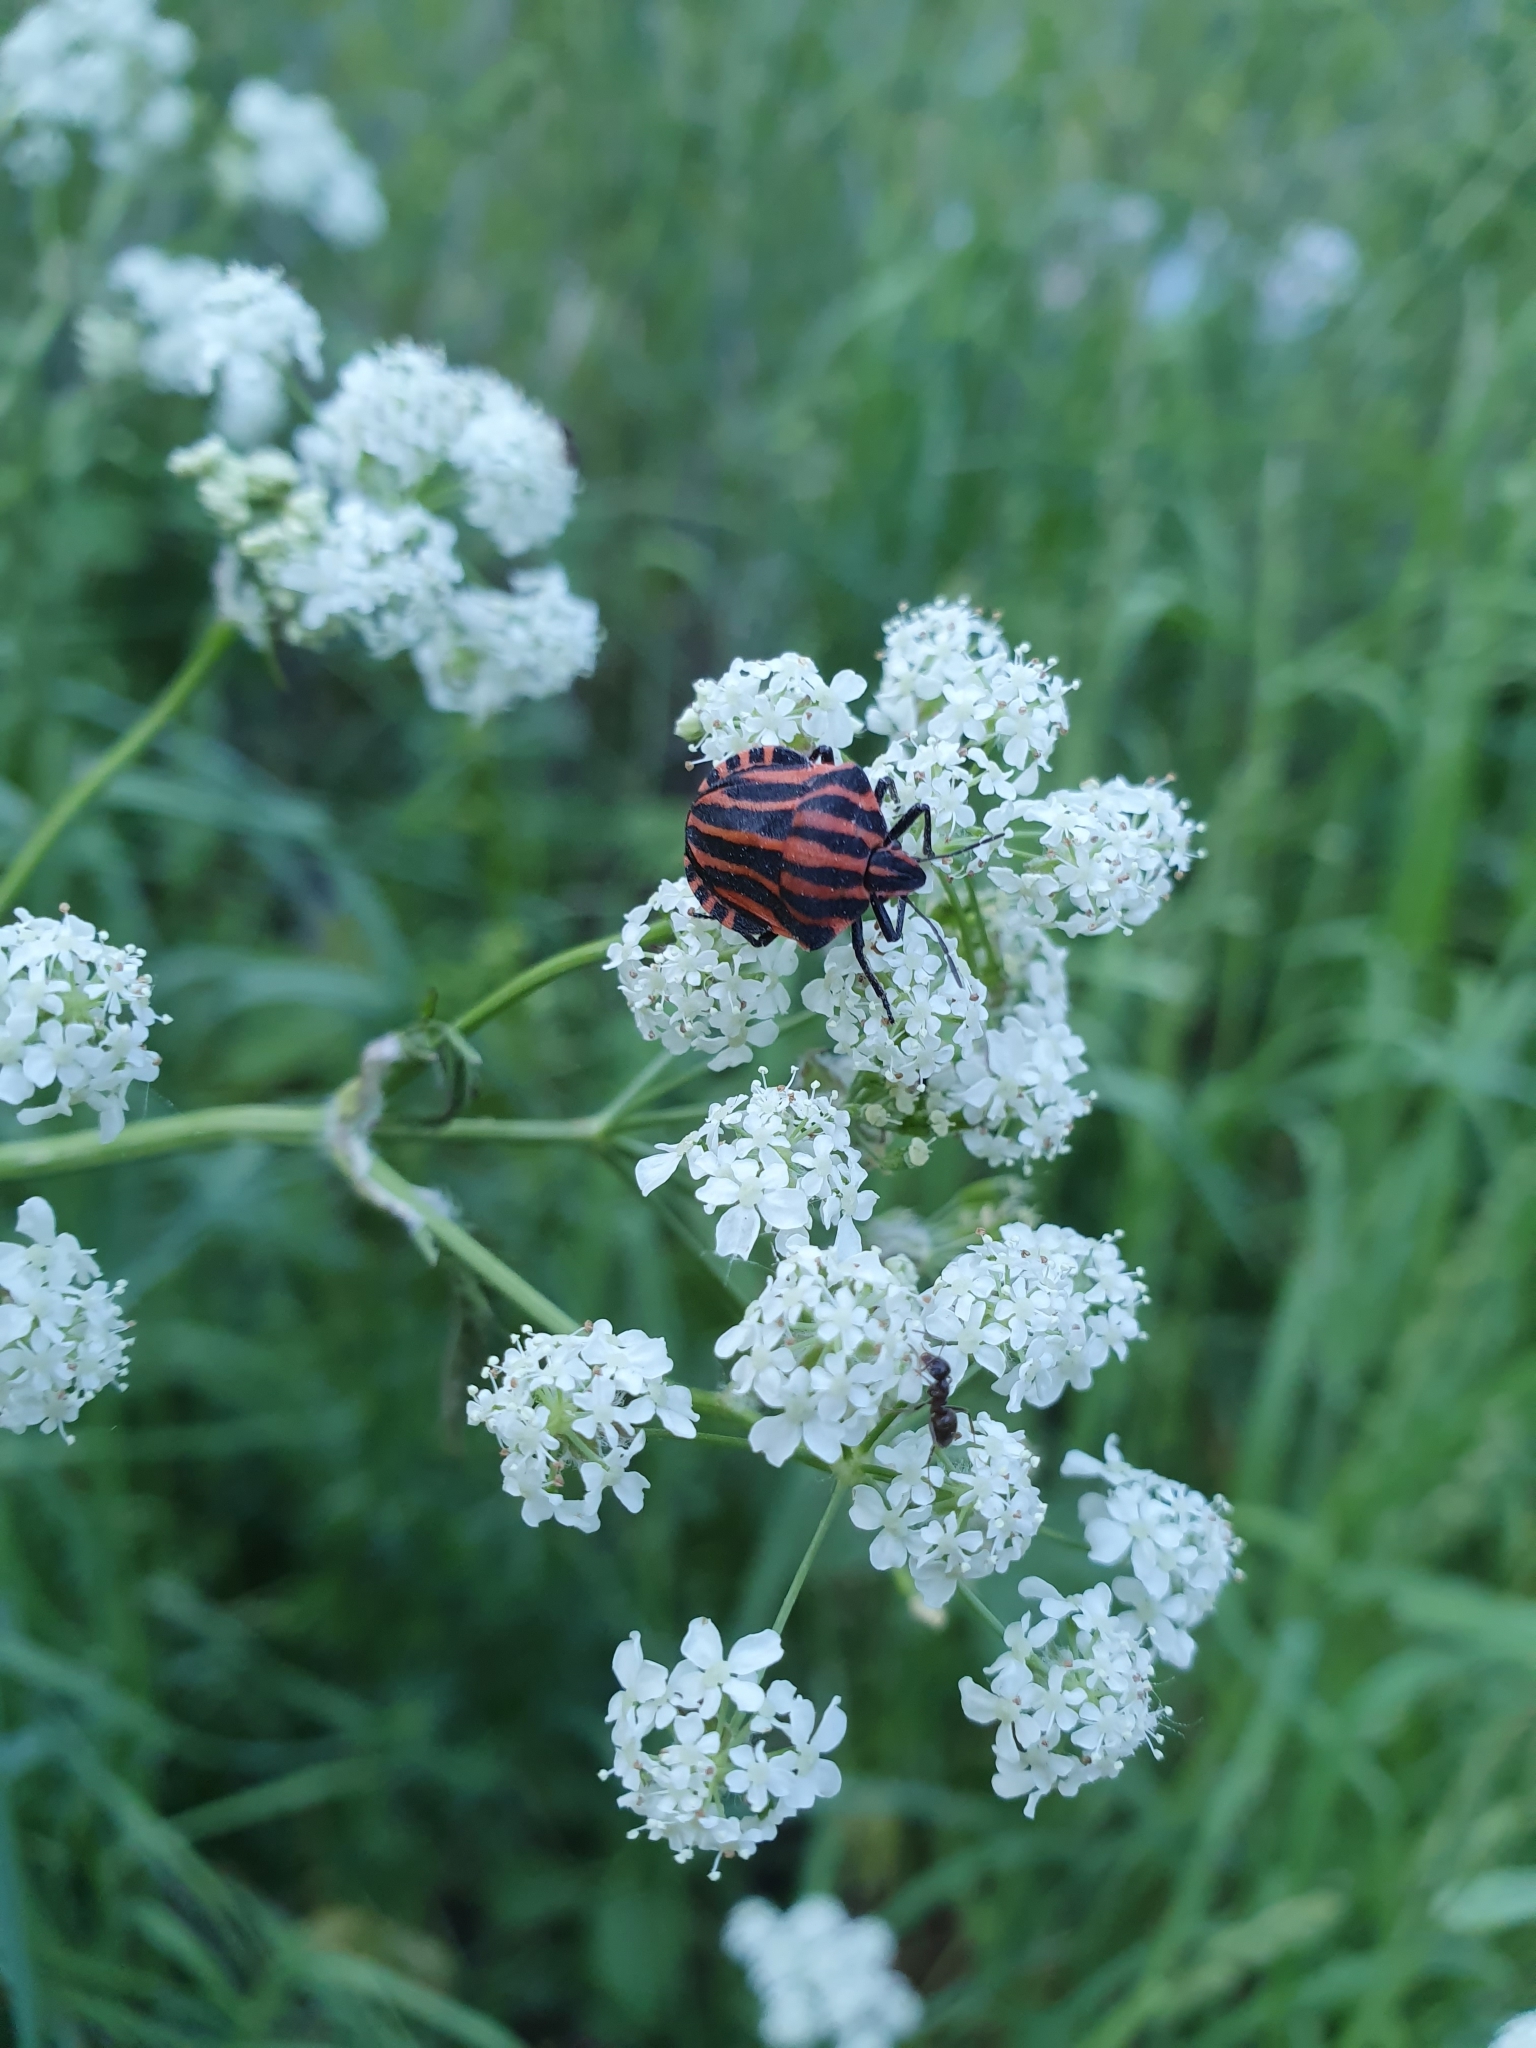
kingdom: Animalia
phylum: Arthropoda
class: Insecta
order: Hemiptera
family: Pentatomidae
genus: Graphosoma
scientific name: Graphosoma italicum
